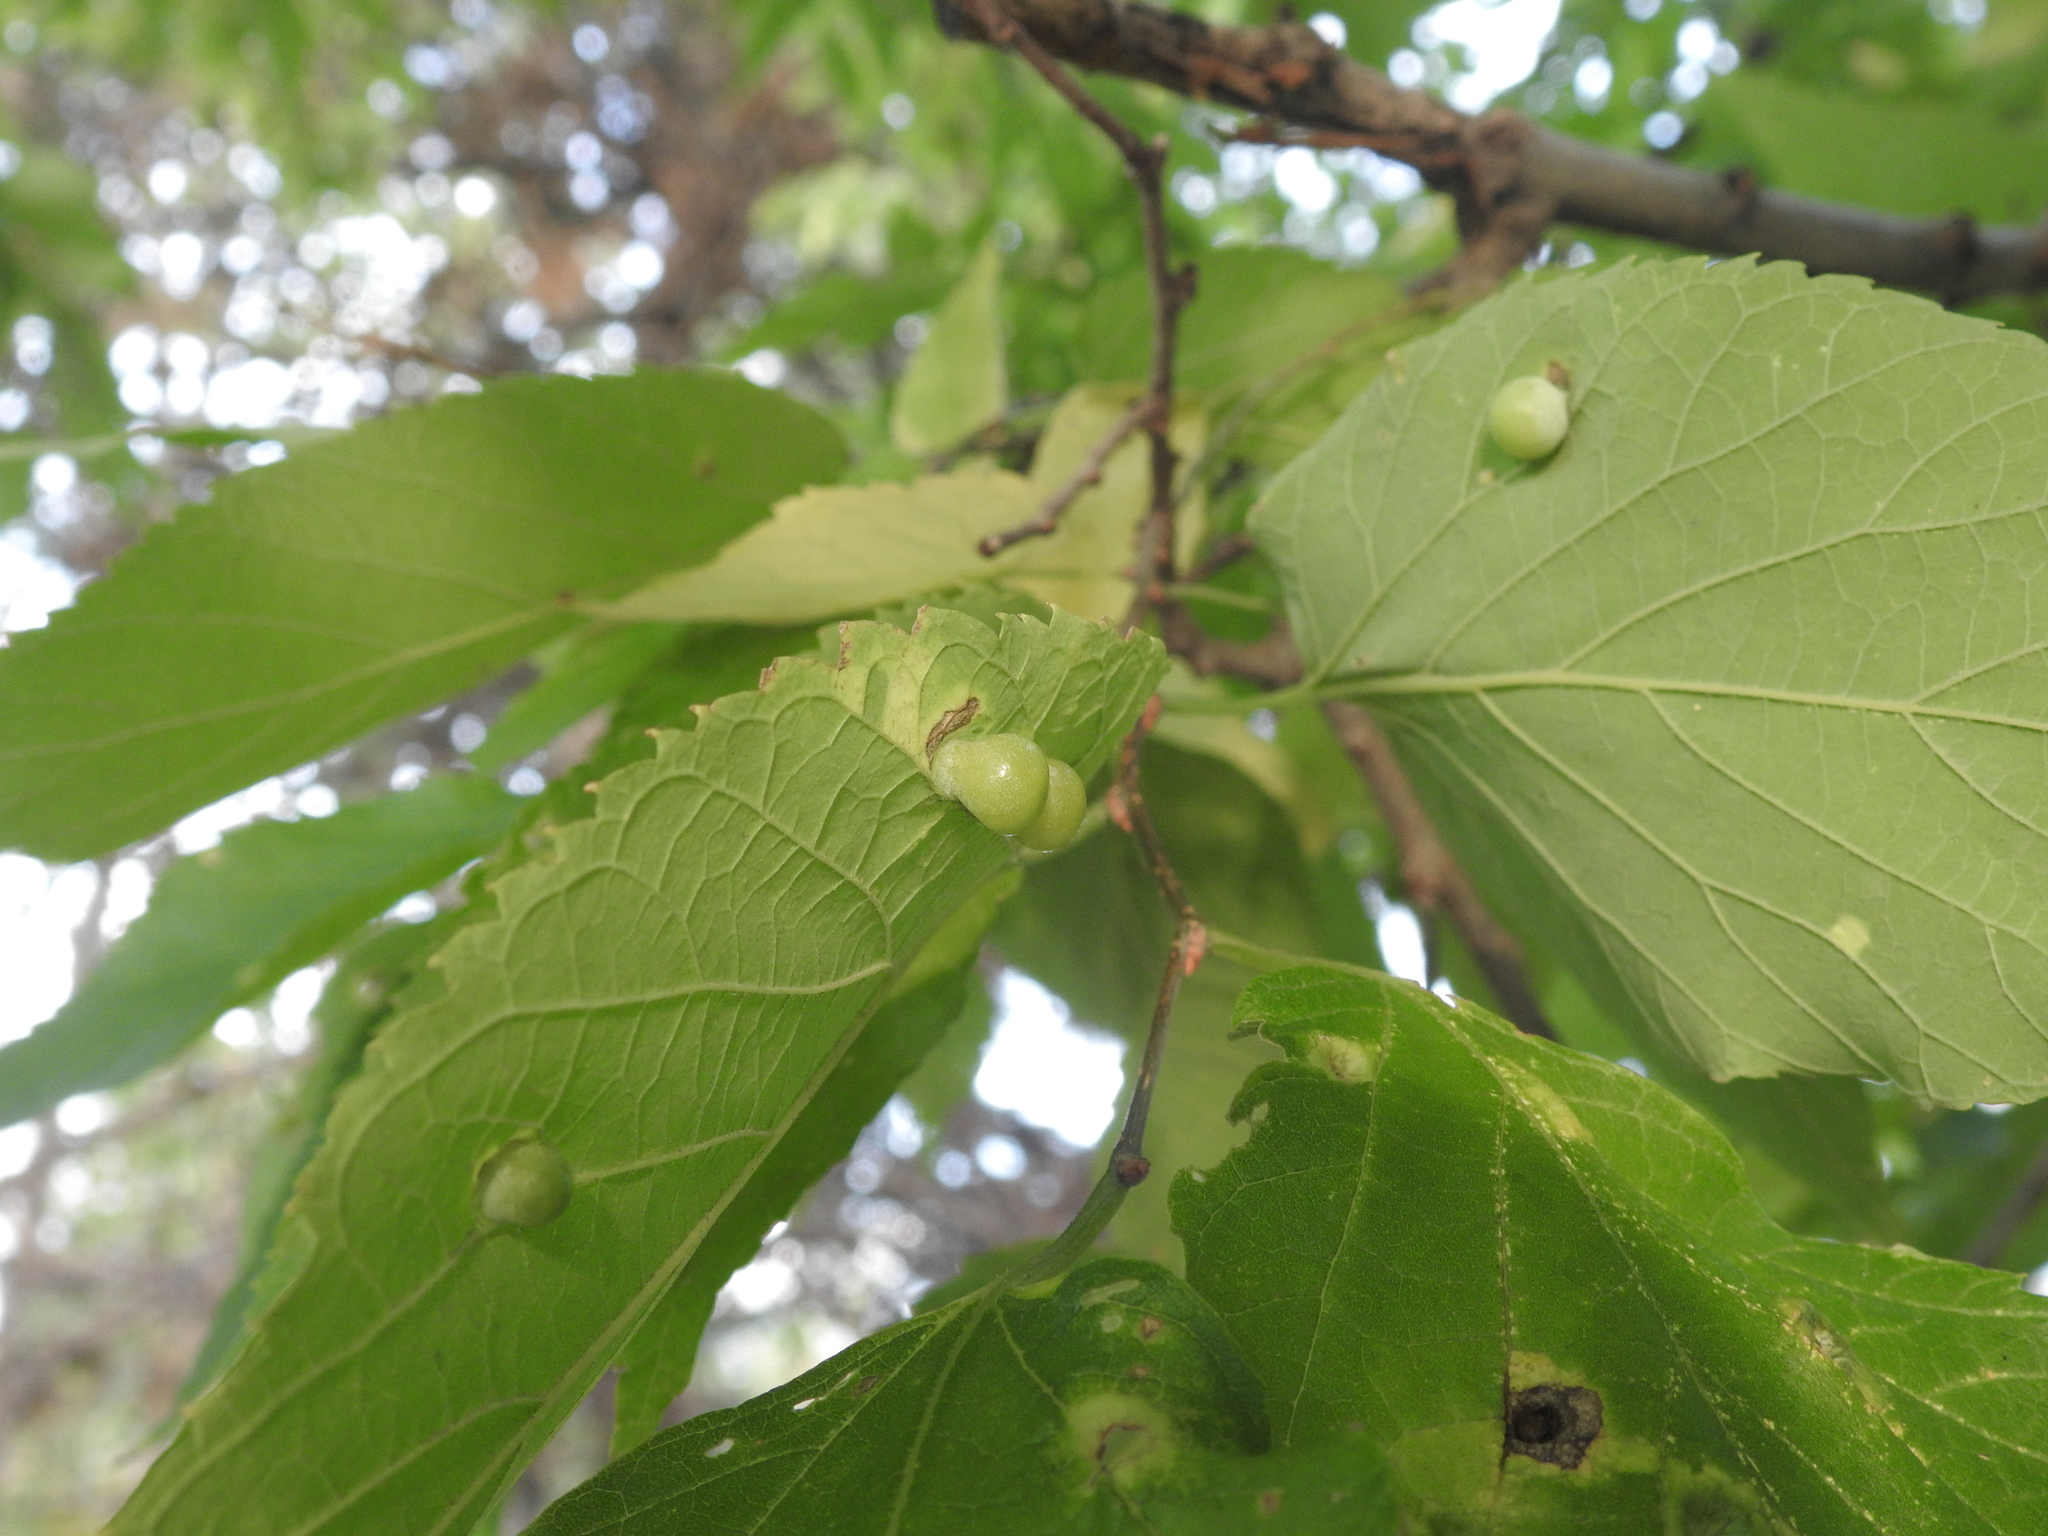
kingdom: Animalia
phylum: Arthropoda
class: Insecta
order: Hemiptera
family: Aphalaridae
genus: Pachypsylla
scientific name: Pachypsylla celtidismamma
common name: Hackberry nipplegall psyllid
